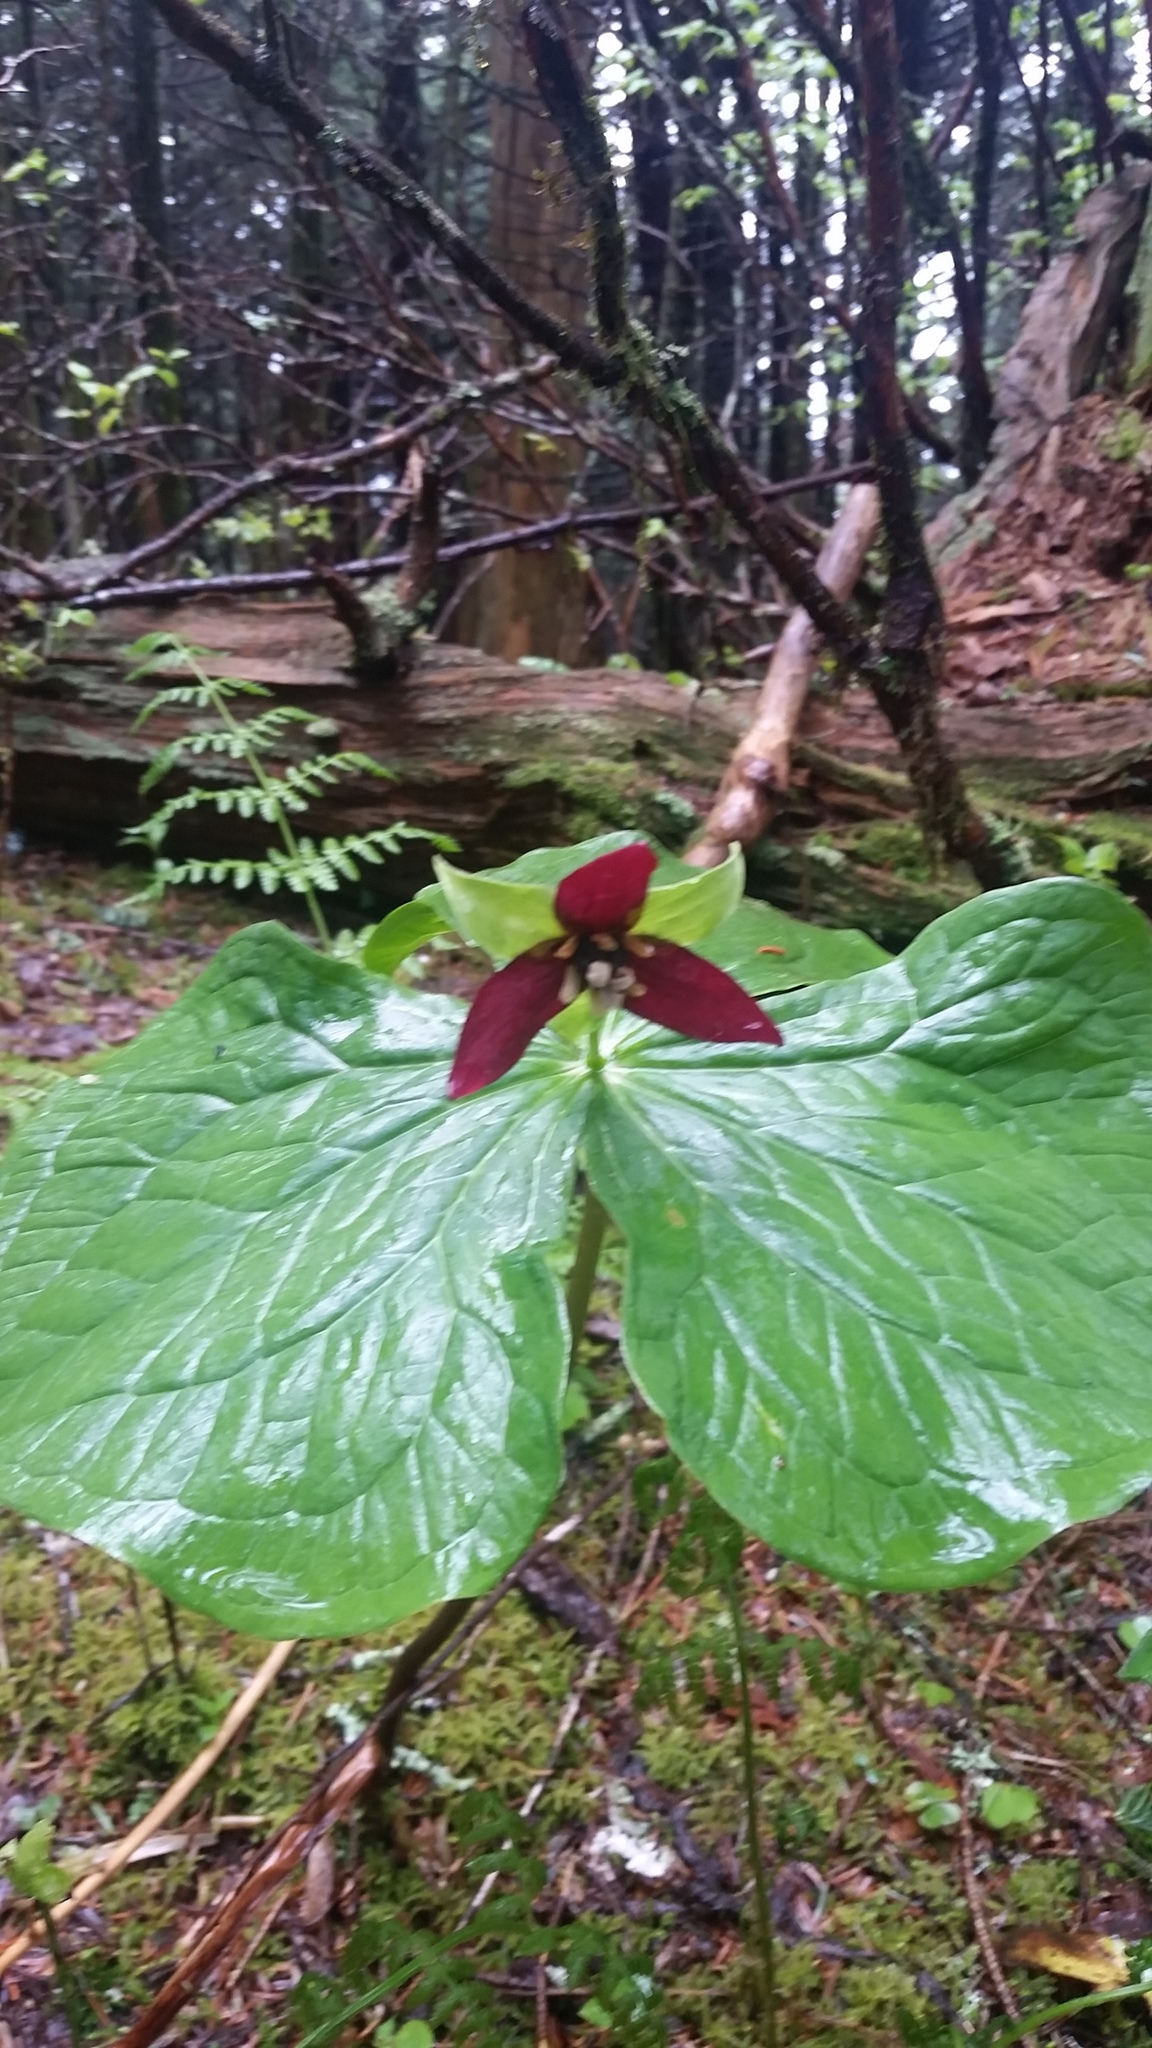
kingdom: Plantae
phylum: Tracheophyta
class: Liliopsida
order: Liliales
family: Melanthiaceae
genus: Trillium
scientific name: Trillium erectum
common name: Purple trillium
